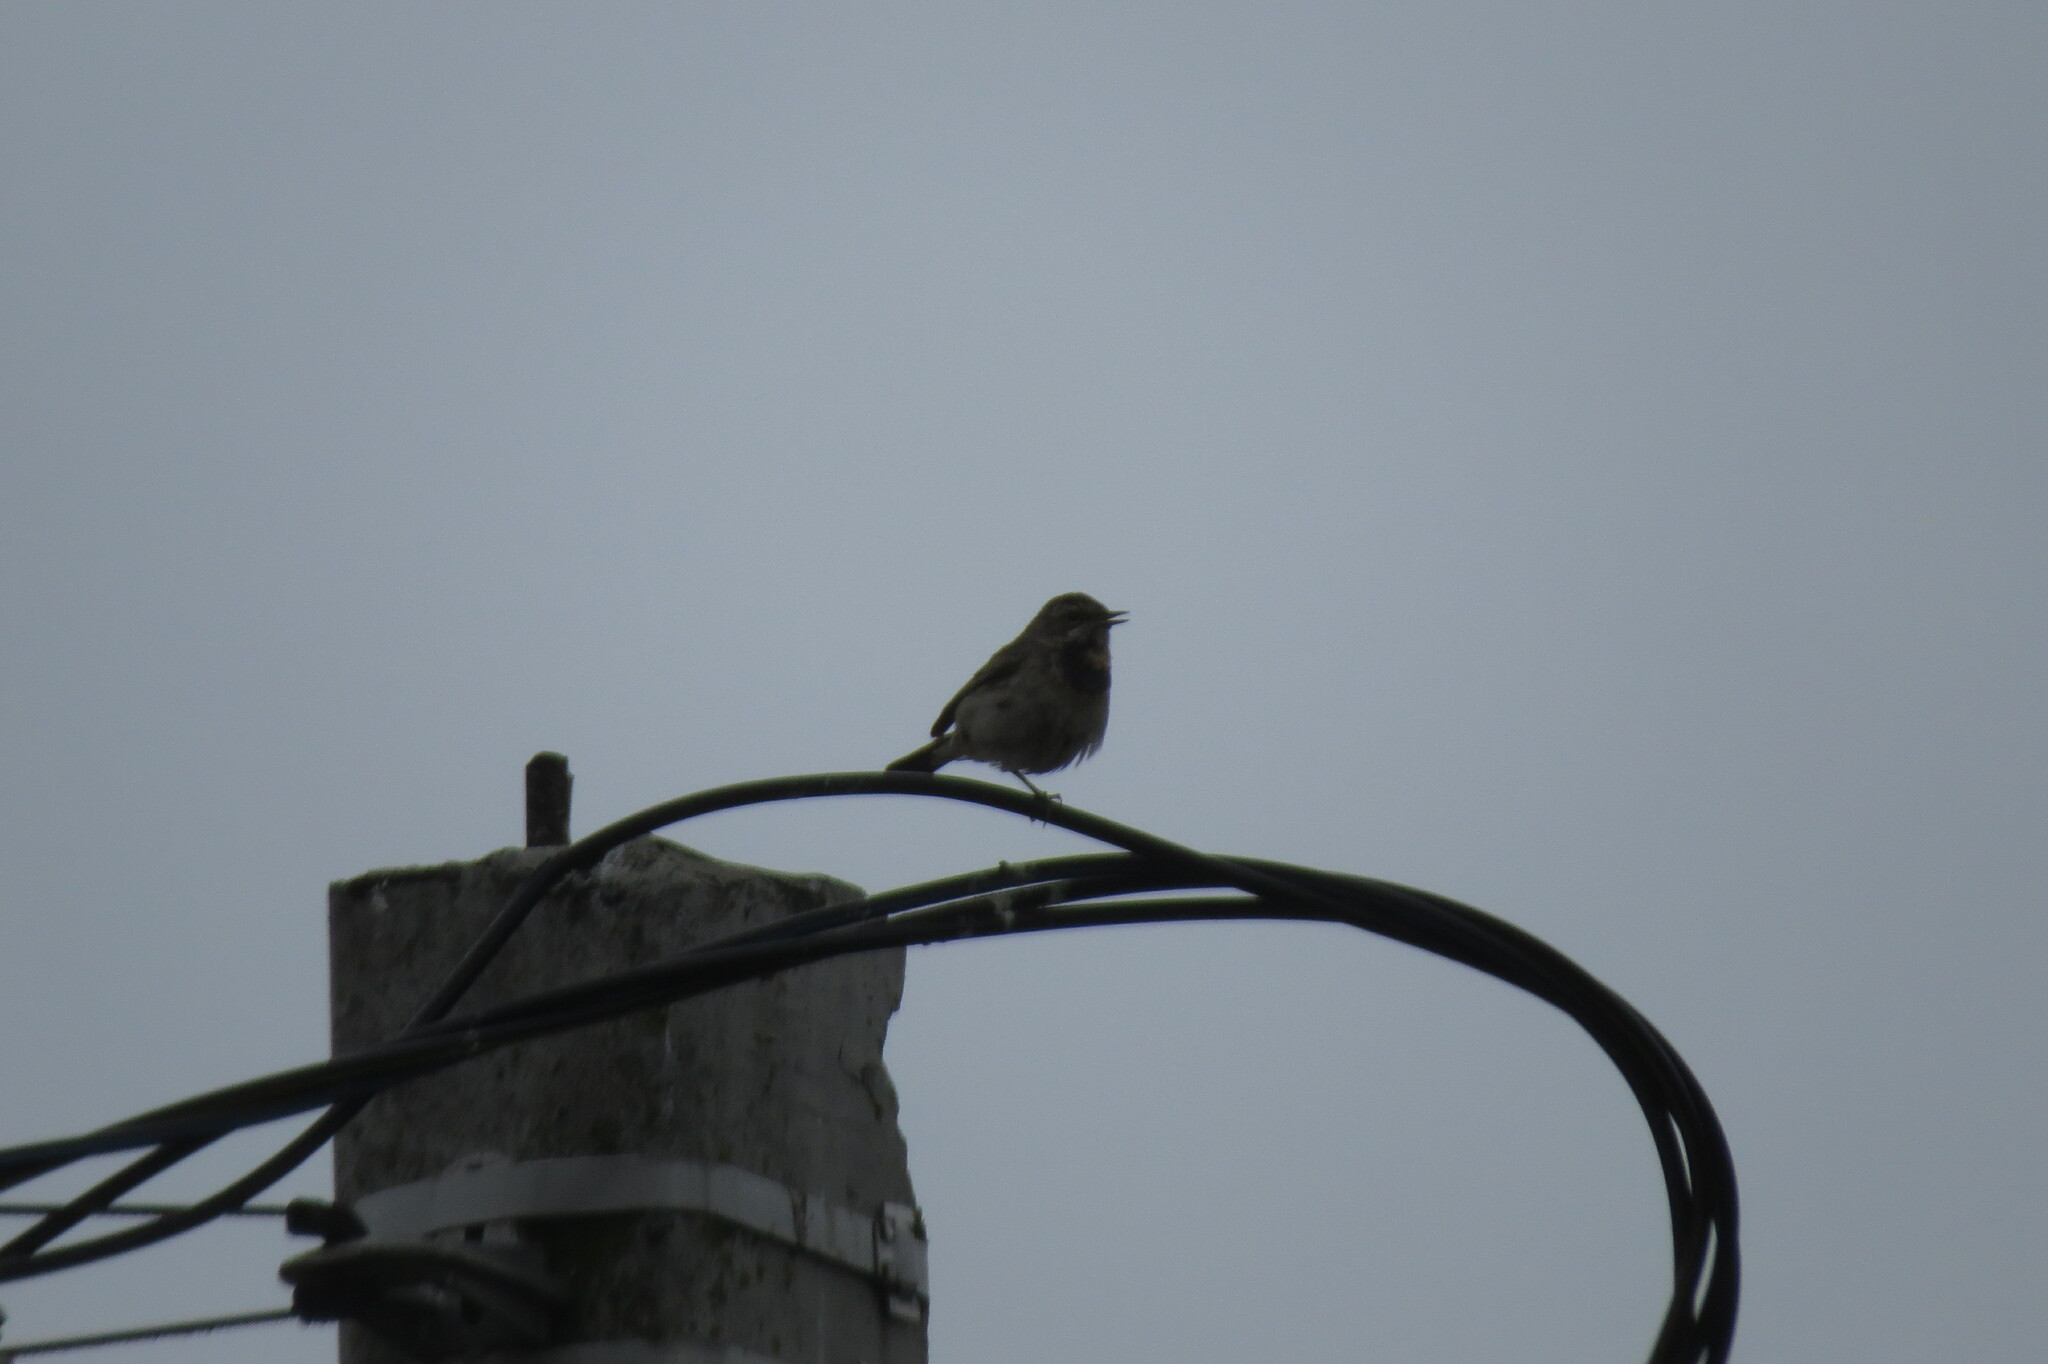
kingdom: Animalia
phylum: Chordata
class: Aves
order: Passeriformes
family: Muscicapidae
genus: Luscinia
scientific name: Luscinia svecica
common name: Bluethroat
